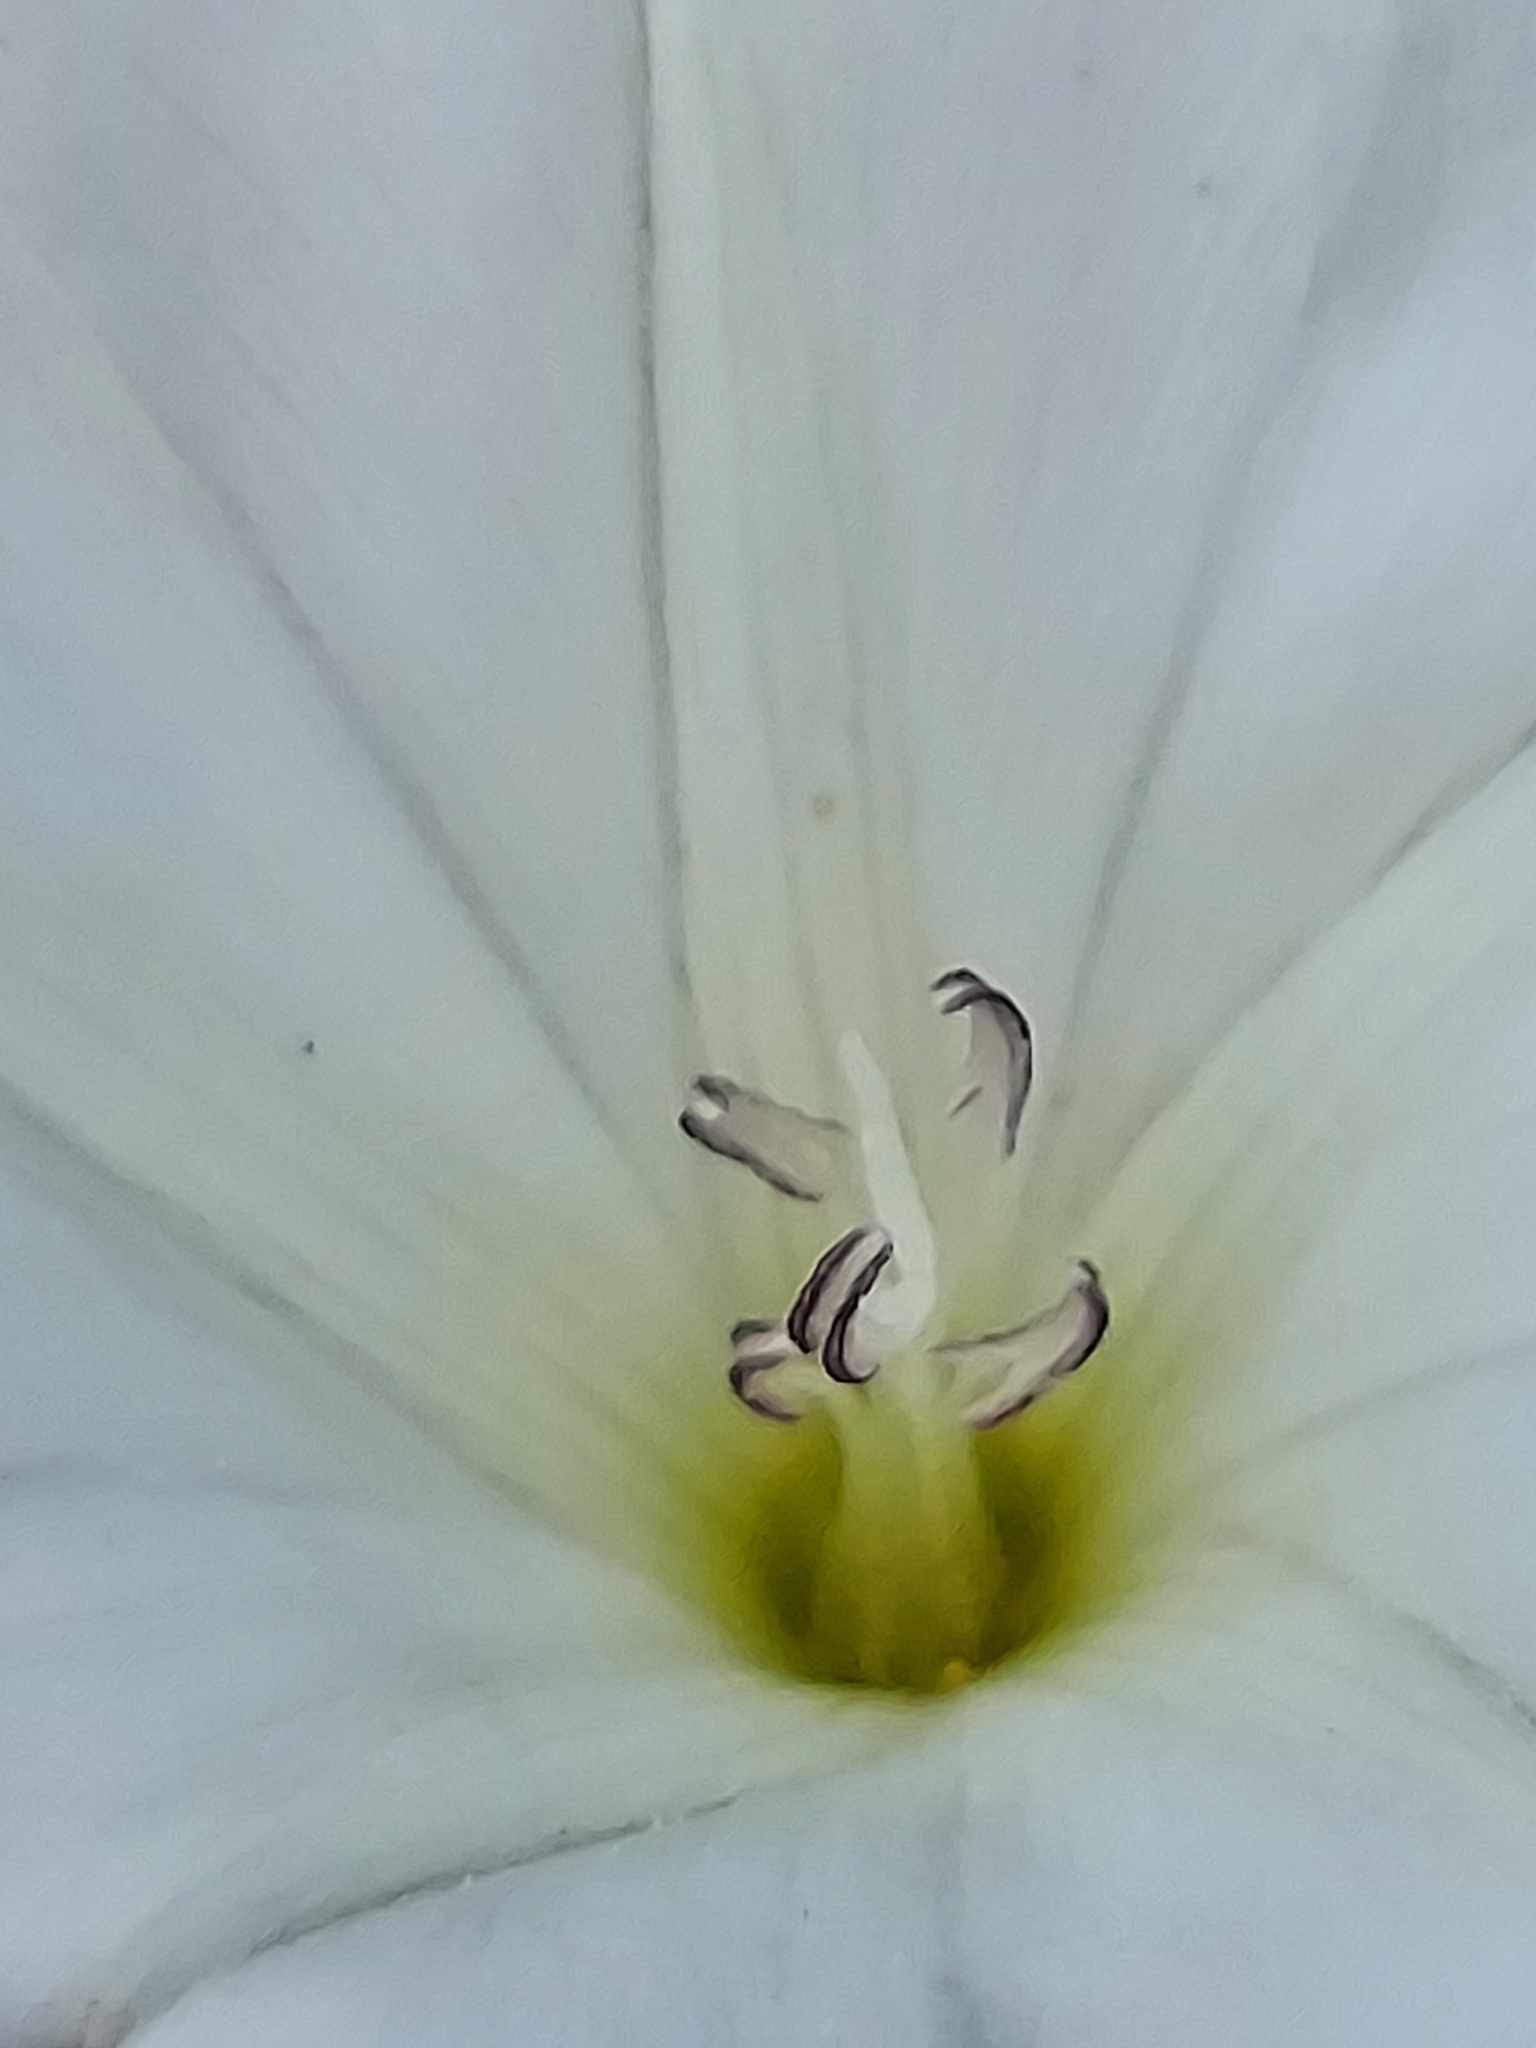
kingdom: Plantae
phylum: Tracheophyta
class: Magnoliopsida
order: Solanales
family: Convolvulaceae
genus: Convolvulus
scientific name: Convolvulus arvensis
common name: Field bindweed
